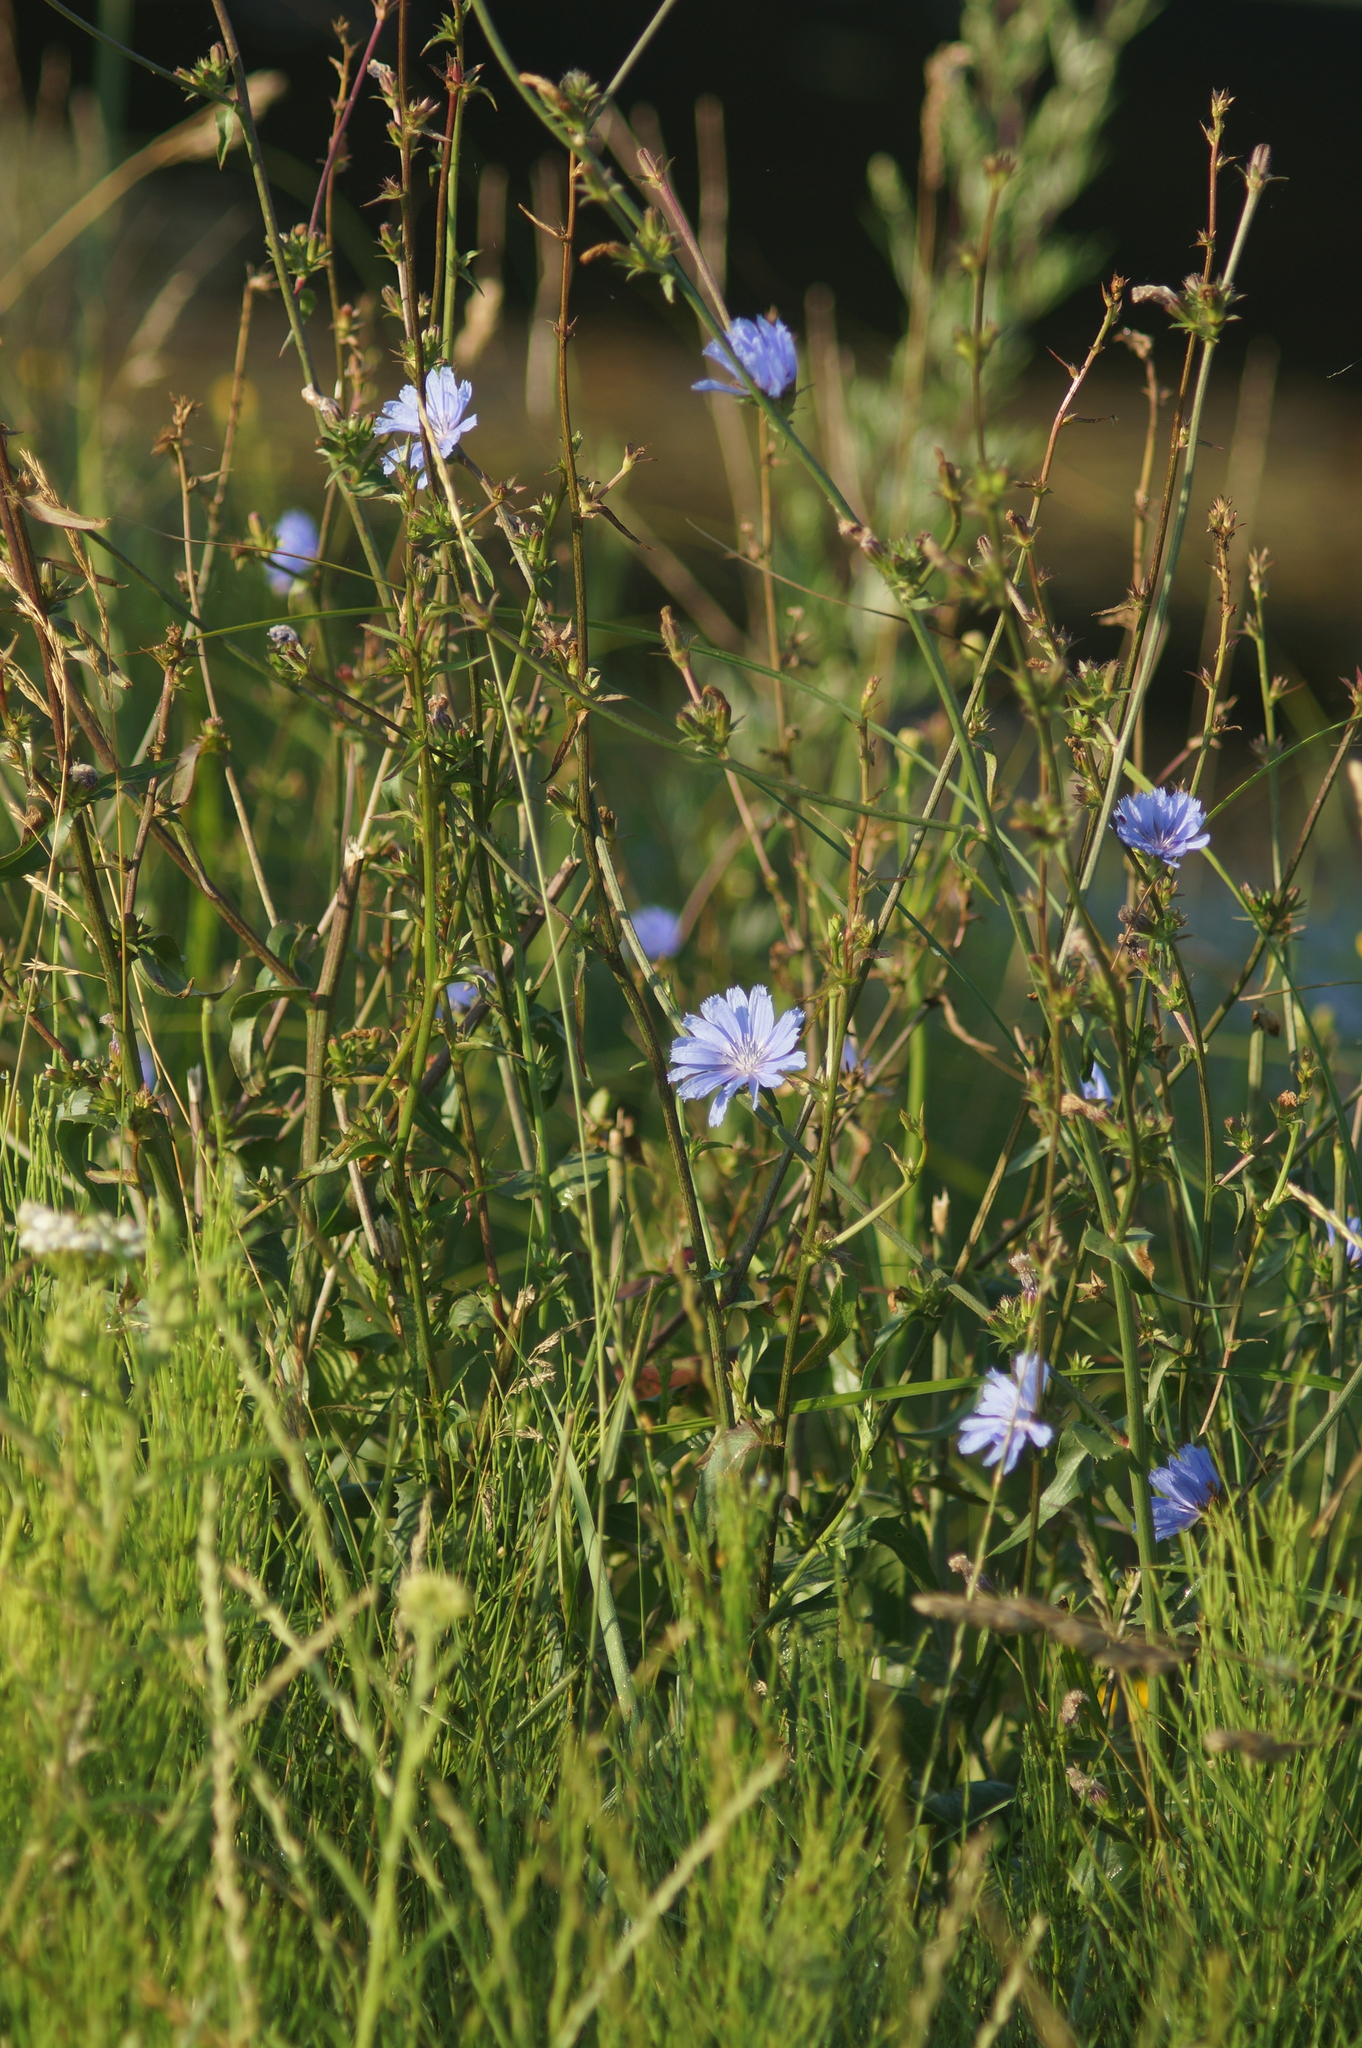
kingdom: Plantae
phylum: Tracheophyta
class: Magnoliopsida
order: Asterales
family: Asteraceae
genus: Cichorium
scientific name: Cichorium intybus
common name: Chicory
